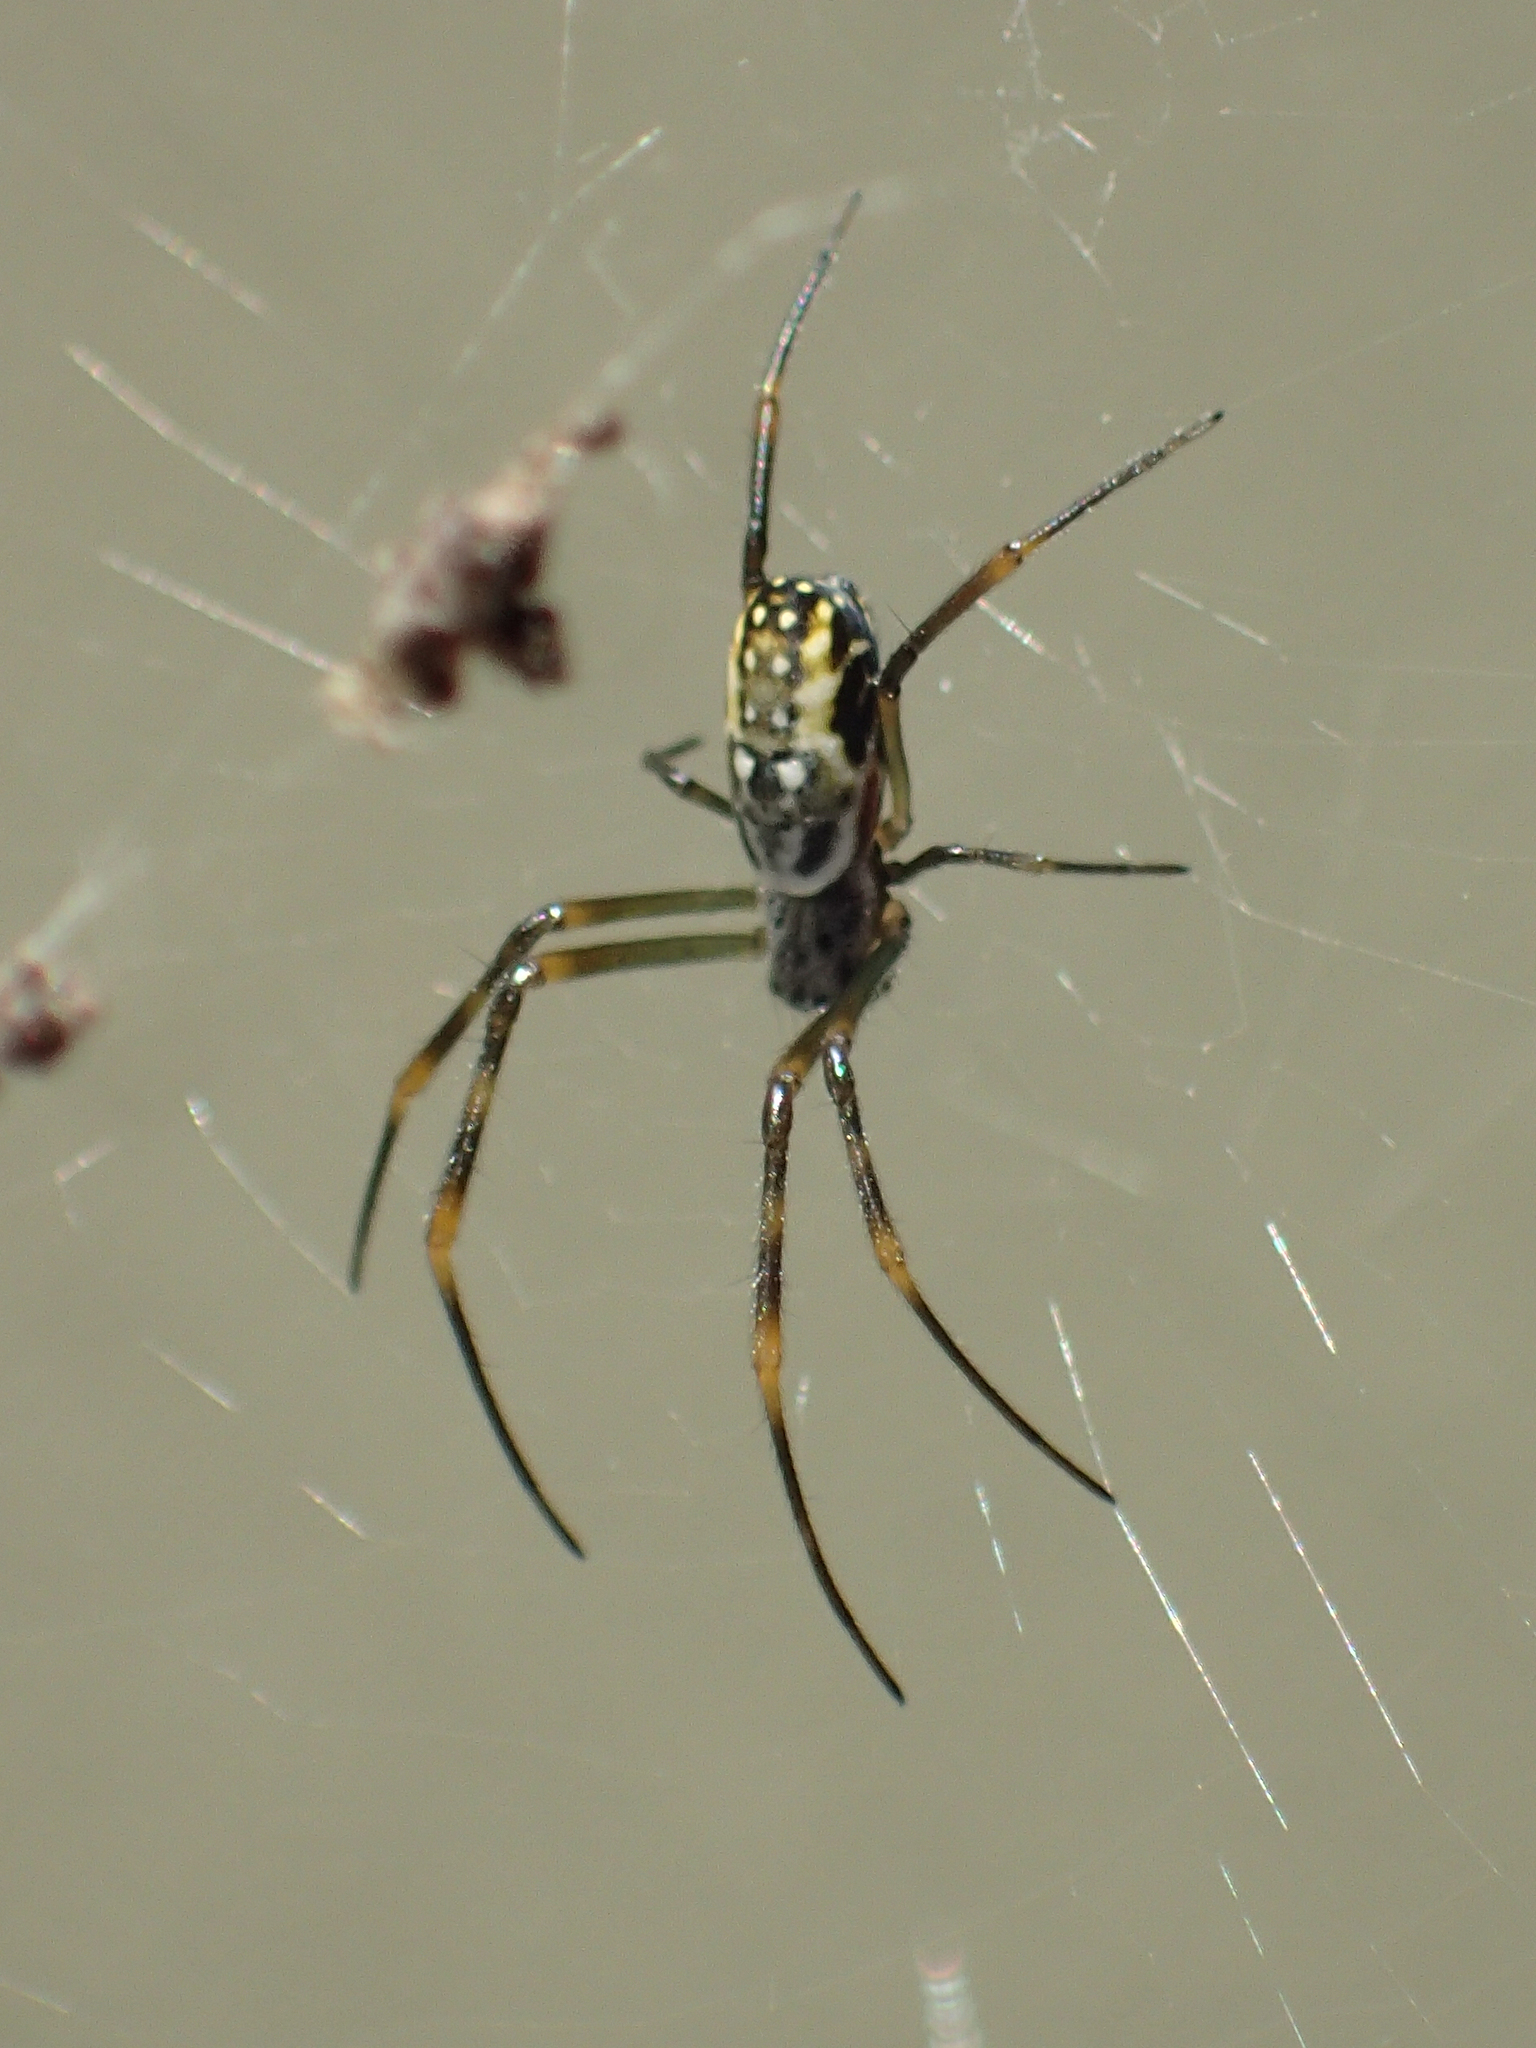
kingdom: Animalia
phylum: Arthropoda
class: Arachnida
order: Araneae
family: Araneidae
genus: Trichonephila
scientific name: Trichonephila plumipes
